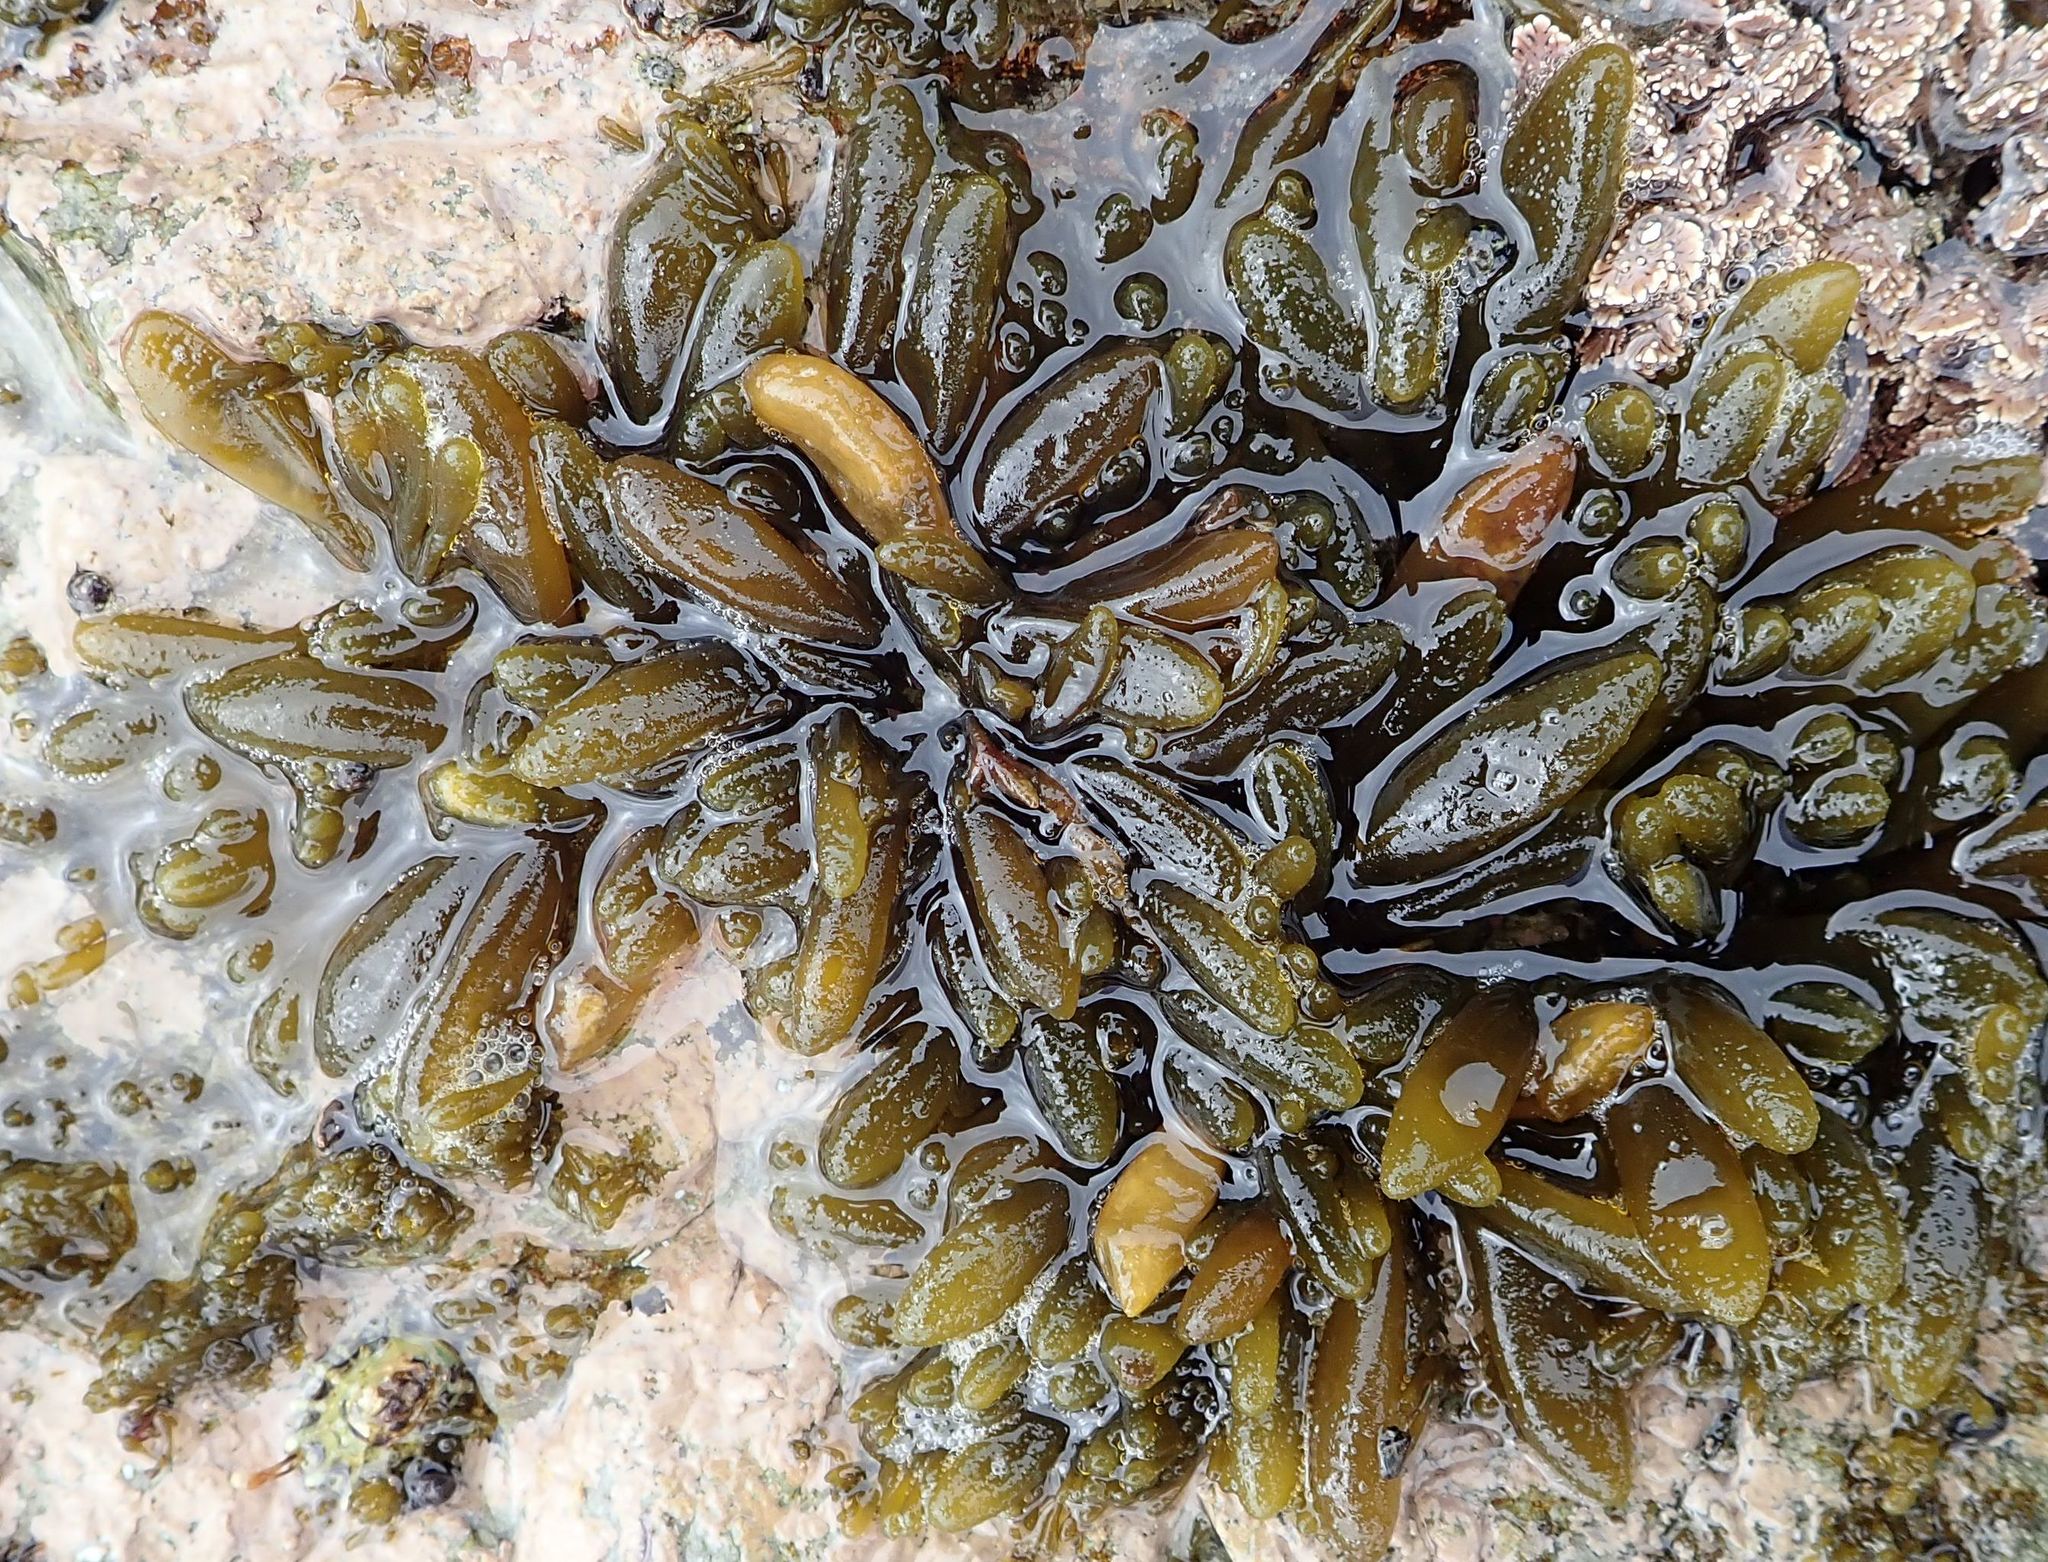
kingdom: Chromista
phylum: Ochrophyta
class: Phaeophyceae
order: Scytothamnales
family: Splachnidiaceae
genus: Splachnidium
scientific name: Splachnidium rugosum
